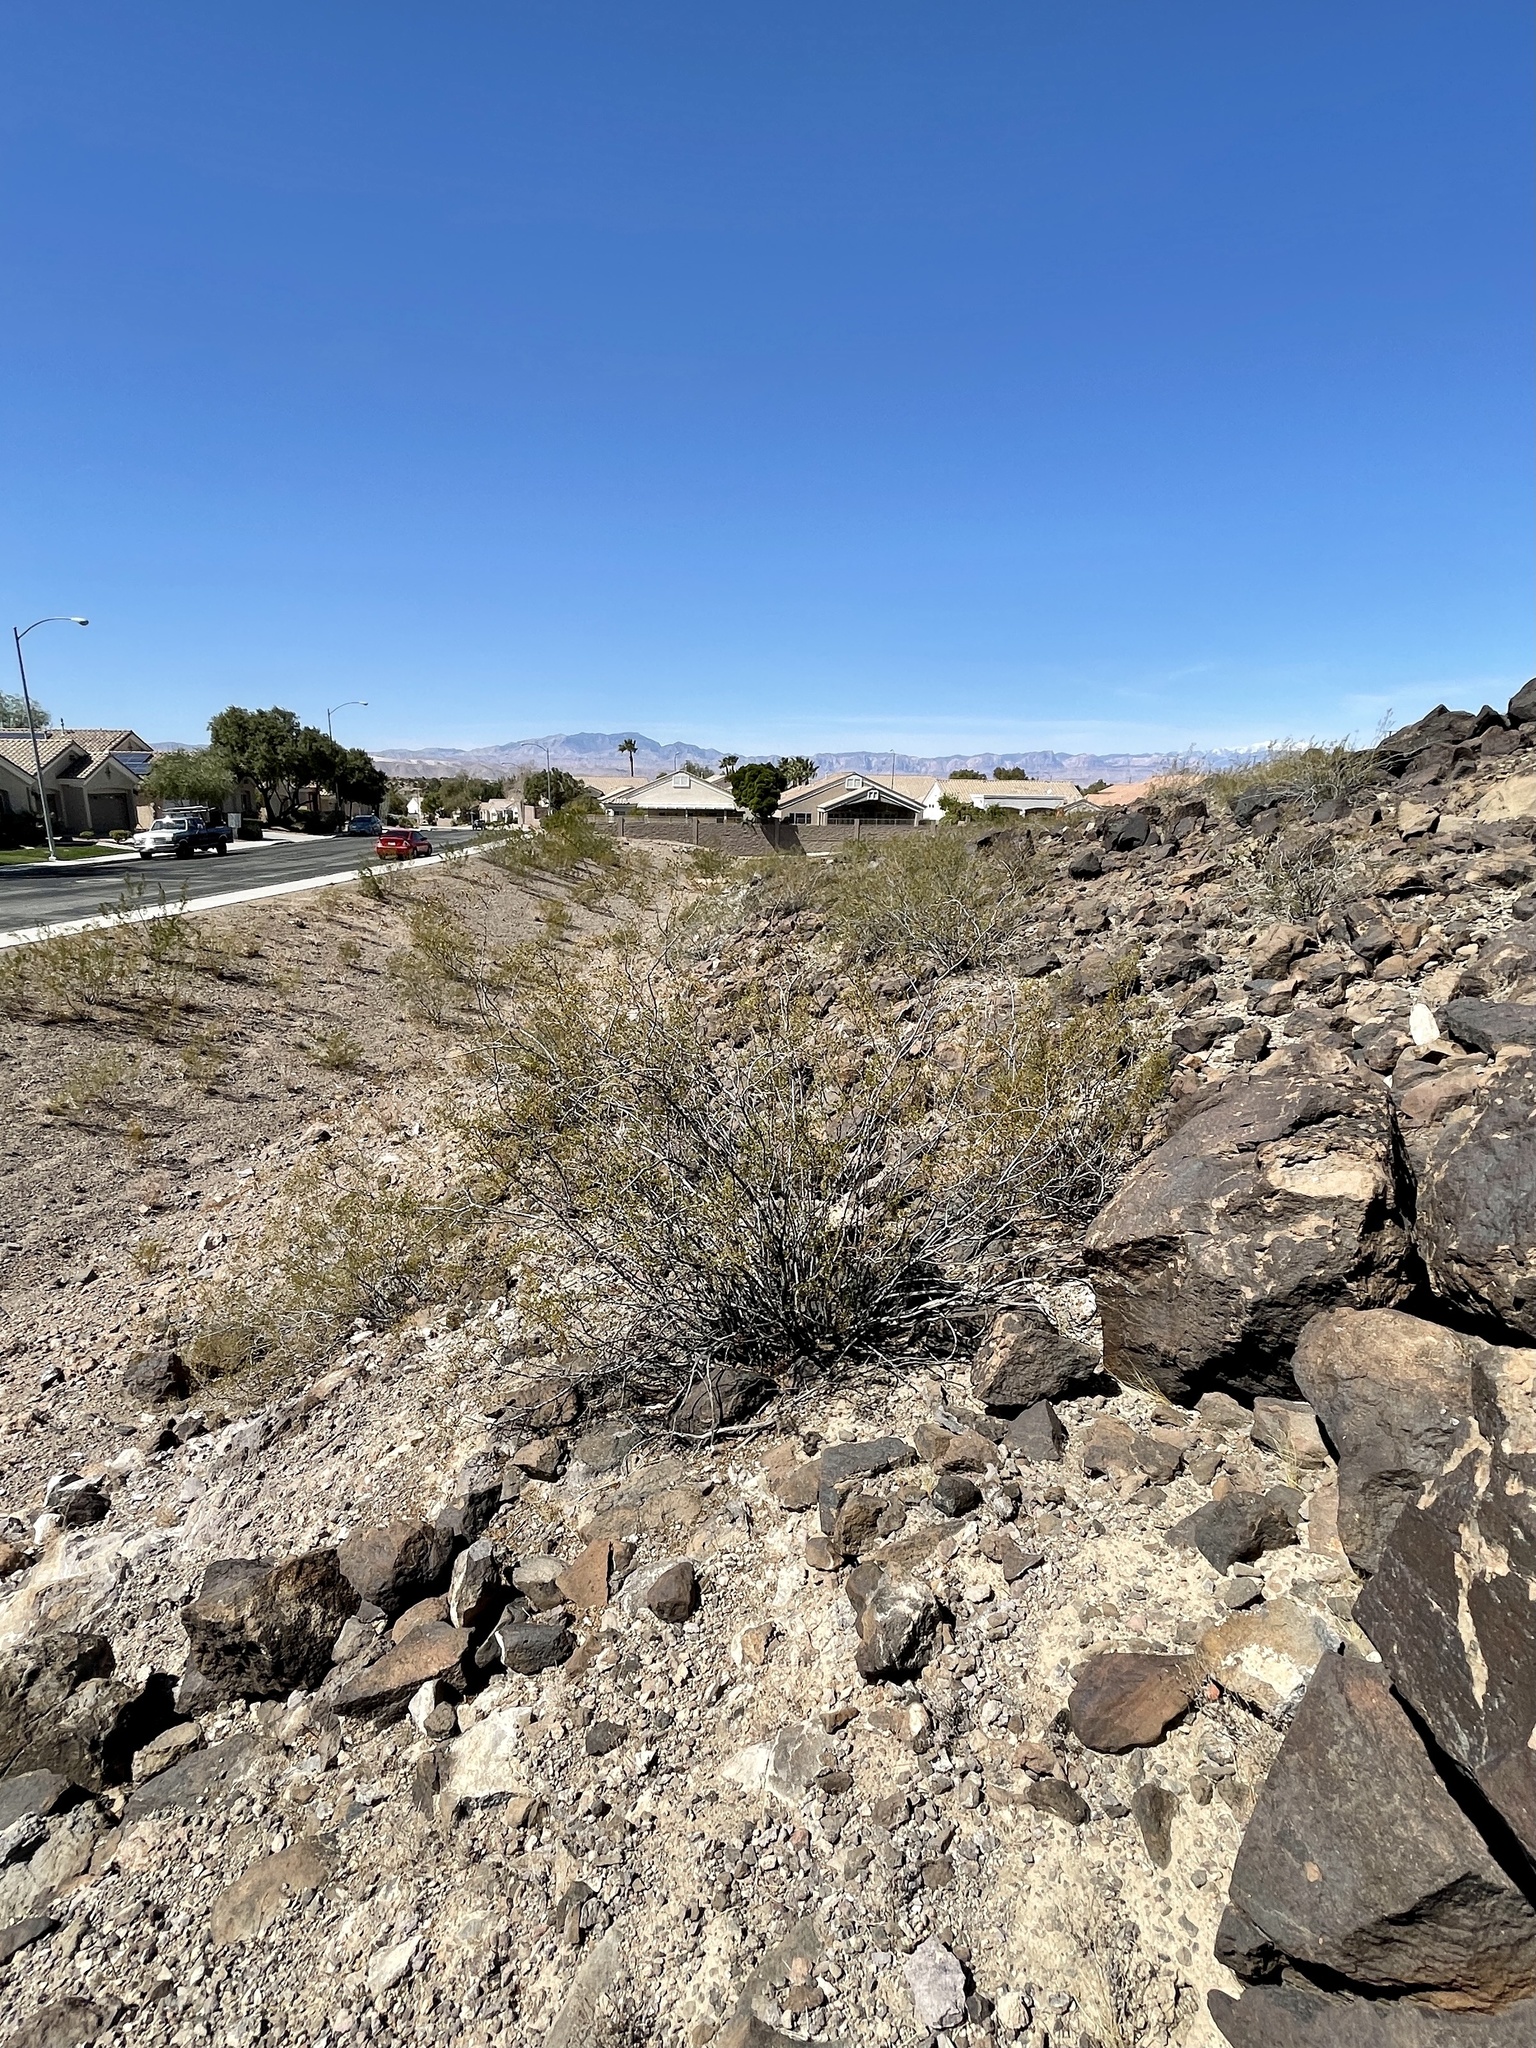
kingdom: Plantae
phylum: Tracheophyta
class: Magnoliopsida
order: Zygophyllales
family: Zygophyllaceae
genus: Larrea
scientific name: Larrea tridentata
